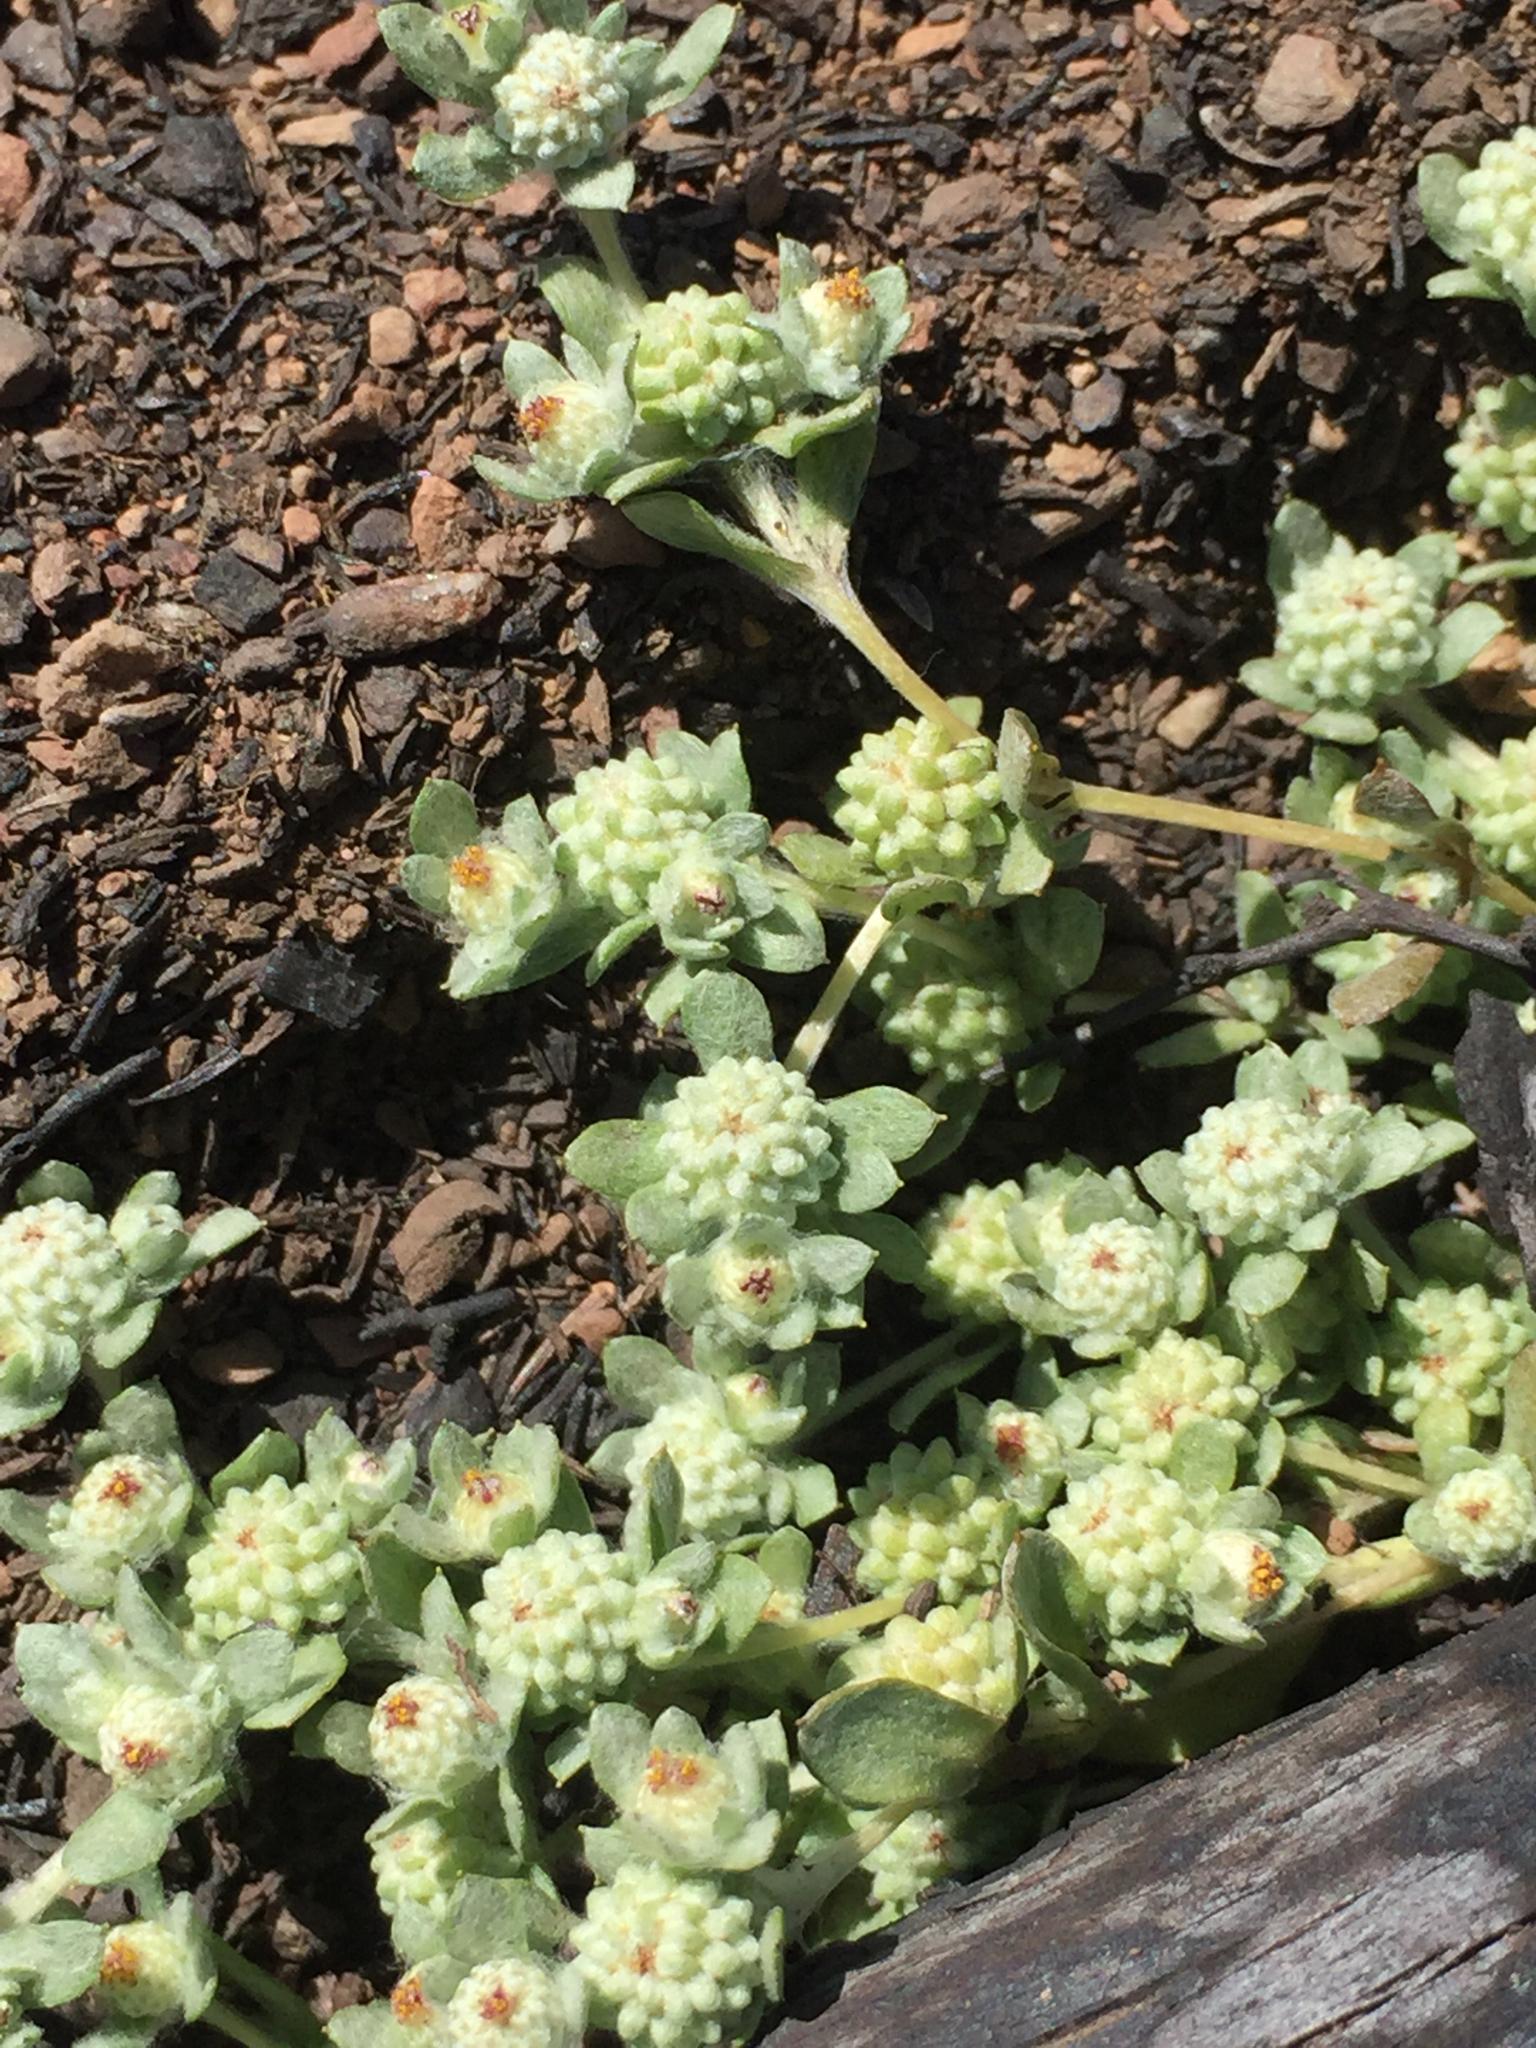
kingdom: Plantae
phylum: Tracheophyta
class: Magnoliopsida
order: Asterales
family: Asteraceae
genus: Psilocarphus
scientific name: Psilocarphus tenellus
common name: Slender woolly-marbles
